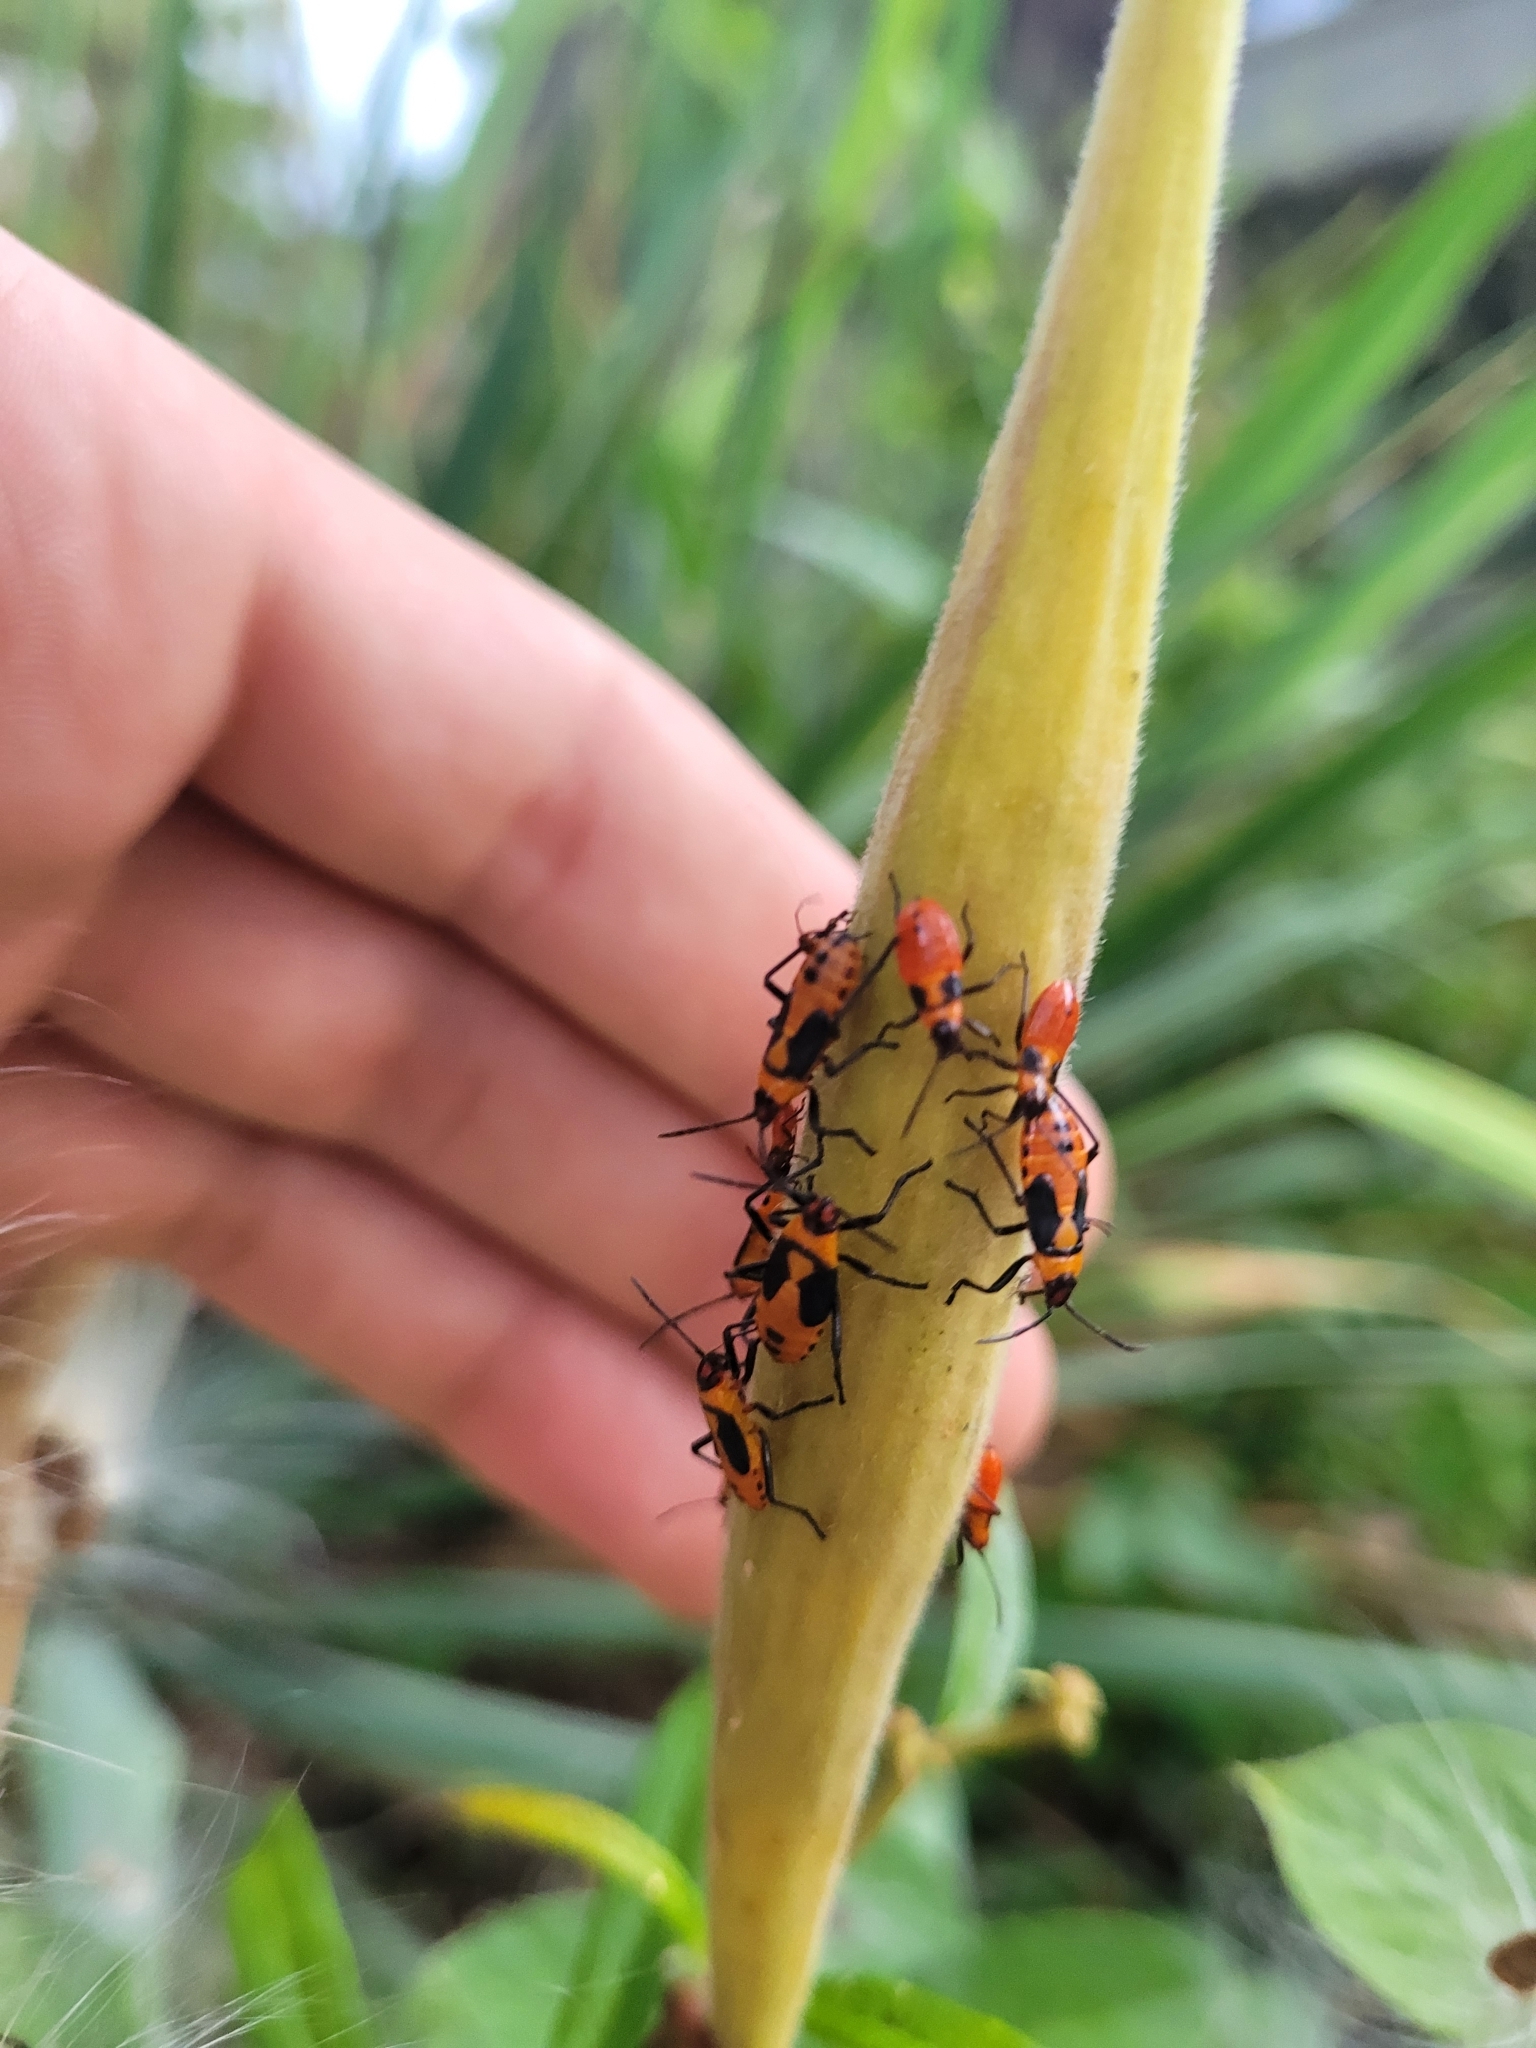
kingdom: Animalia
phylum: Arthropoda
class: Insecta
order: Hemiptera
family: Lygaeidae
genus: Oncopeltus
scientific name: Oncopeltus fasciatus
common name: Large milkweed bug
